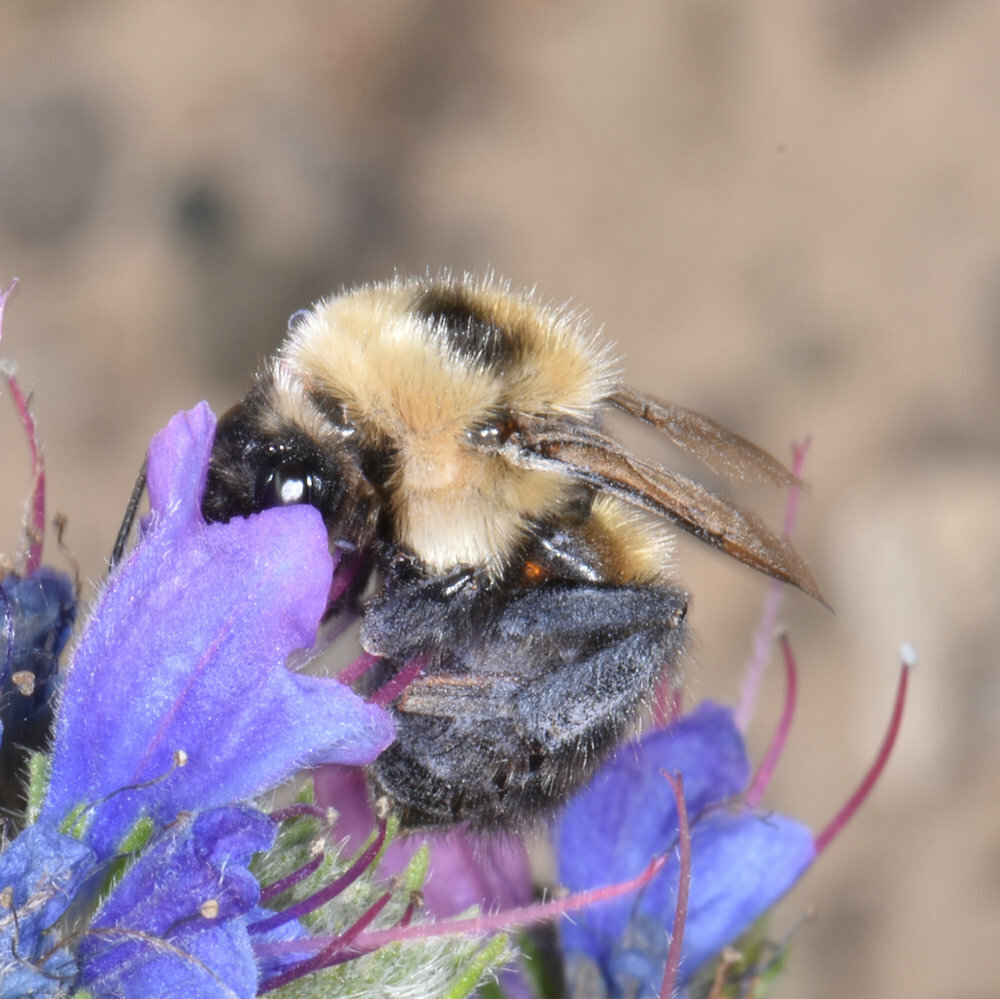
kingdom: Animalia
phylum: Arthropoda
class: Insecta
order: Hymenoptera
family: Apidae
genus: Bombus
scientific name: Bombus rufocinctus
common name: Red-belted bumble bee
